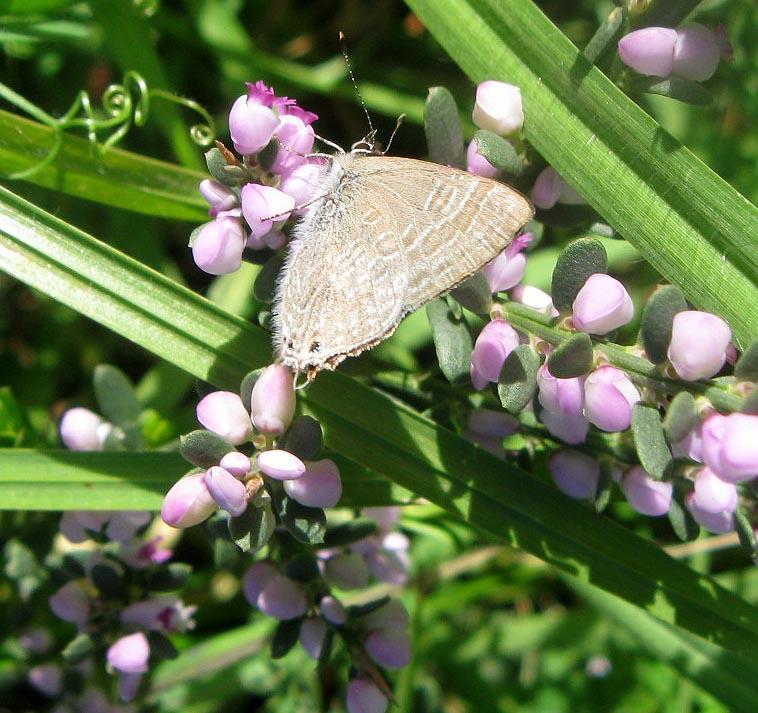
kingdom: Plantae
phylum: Tracheophyta
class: Magnoliopsida
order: Fabales
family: Polygalaceae
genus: Muraltia
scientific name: Muraltia spinosa
